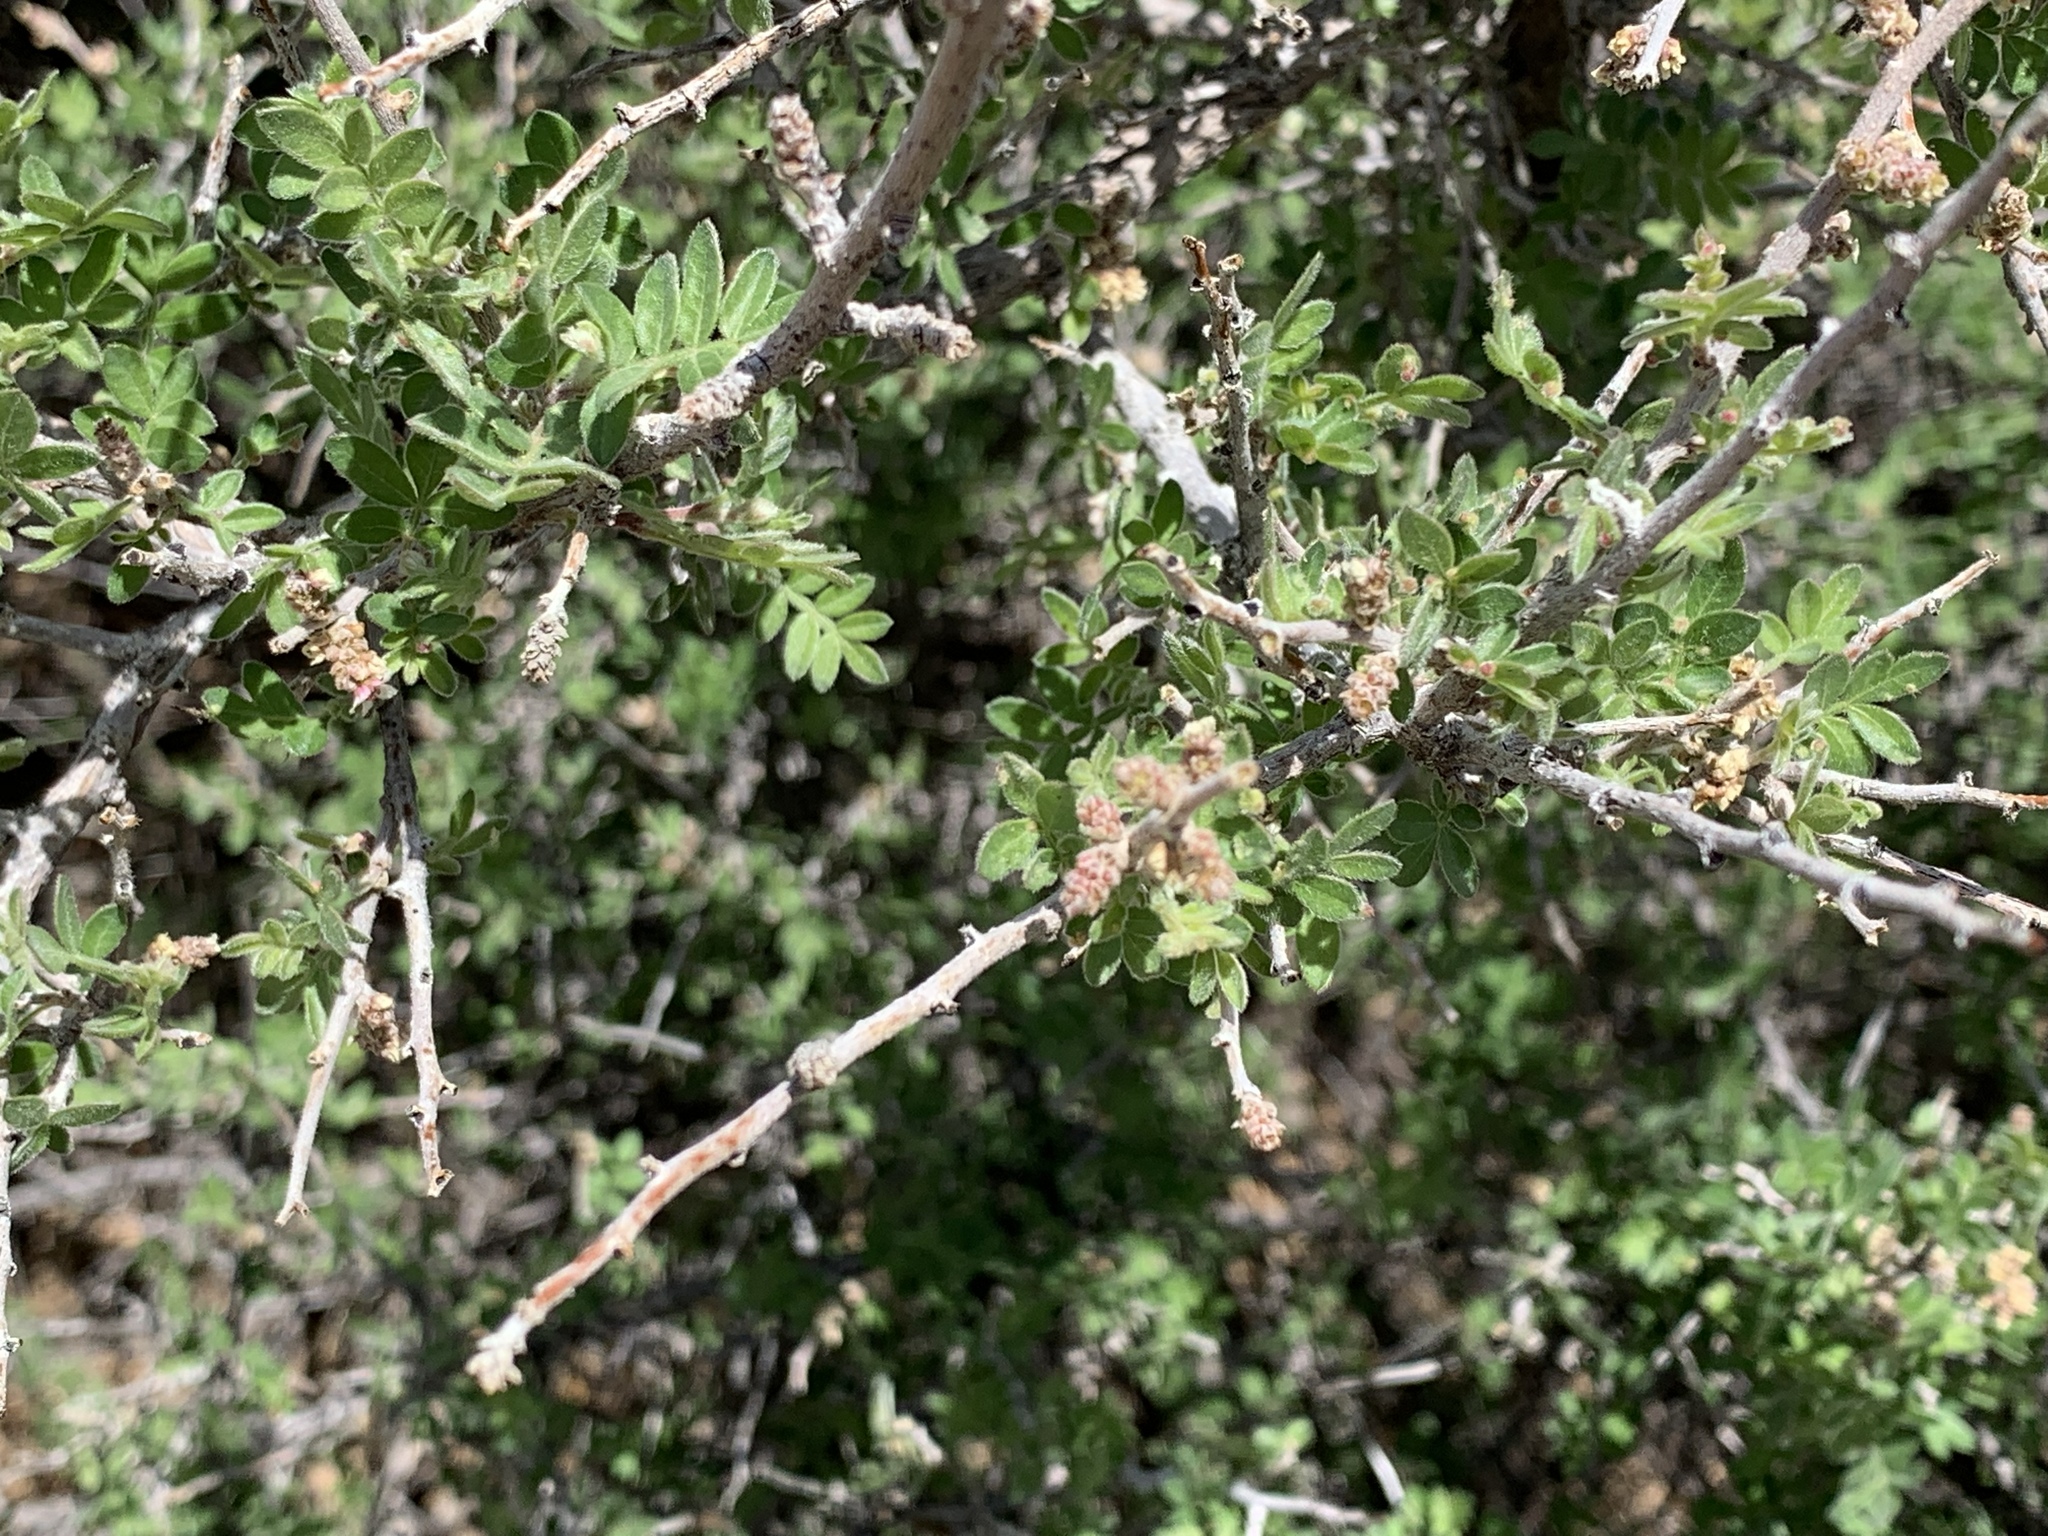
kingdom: Plantae
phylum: Tracheophyta
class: Magnoliopsida
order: Sapindales
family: Anacardiaceae
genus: Rhus
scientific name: Rhus microphylla
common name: Desert sumac
